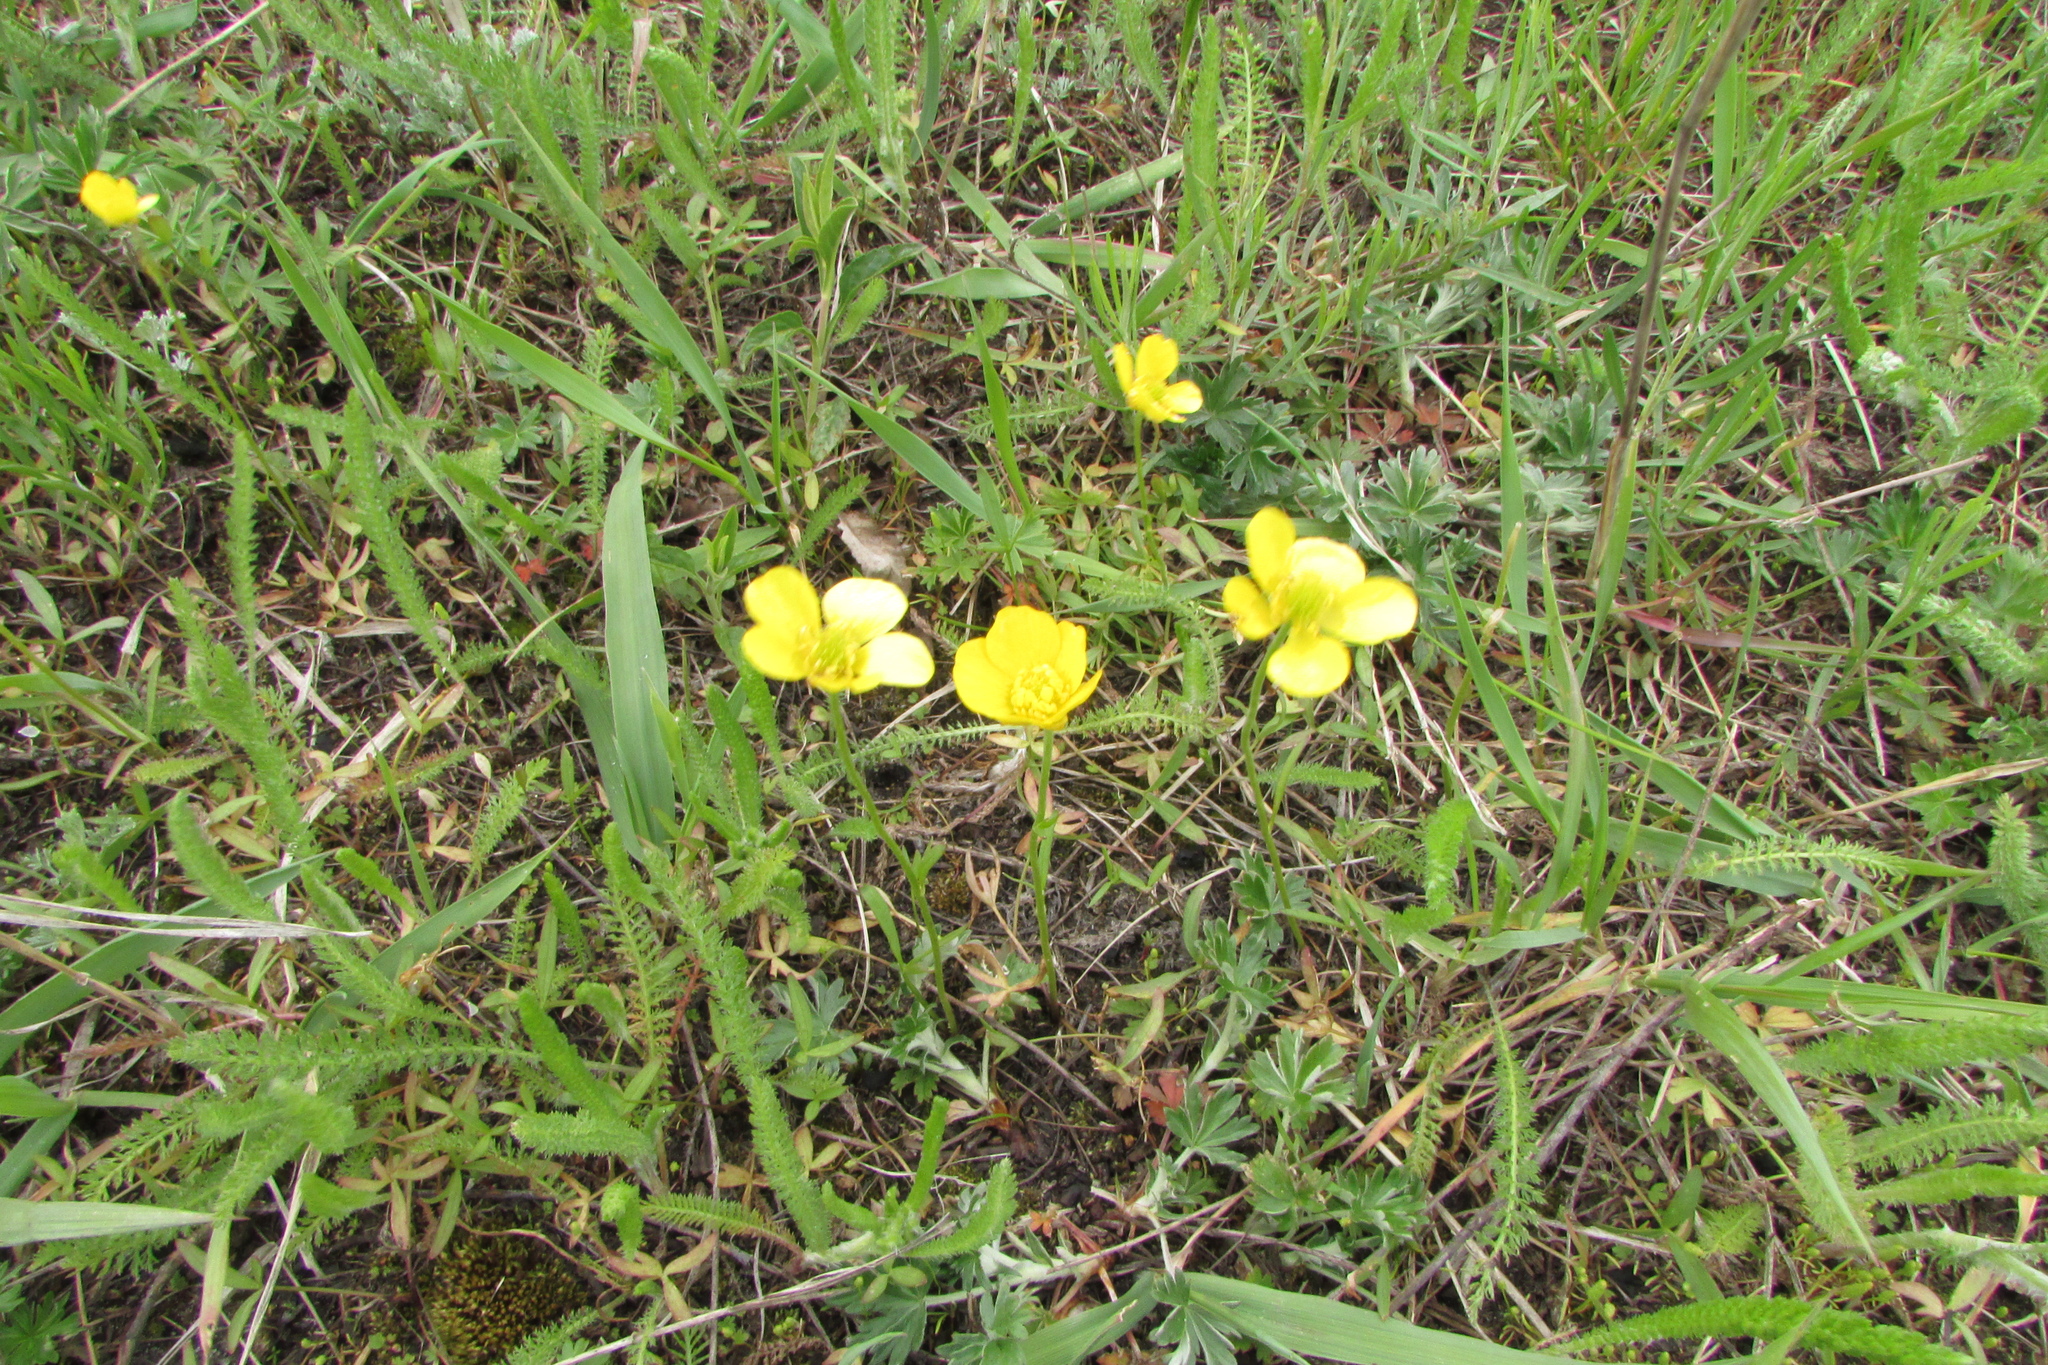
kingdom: Plantae
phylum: Tracheophyta
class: Magnoliopsida
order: Ranunculales
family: Ranunculaceae
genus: Ranunculus
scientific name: Ranunculus pedatus
